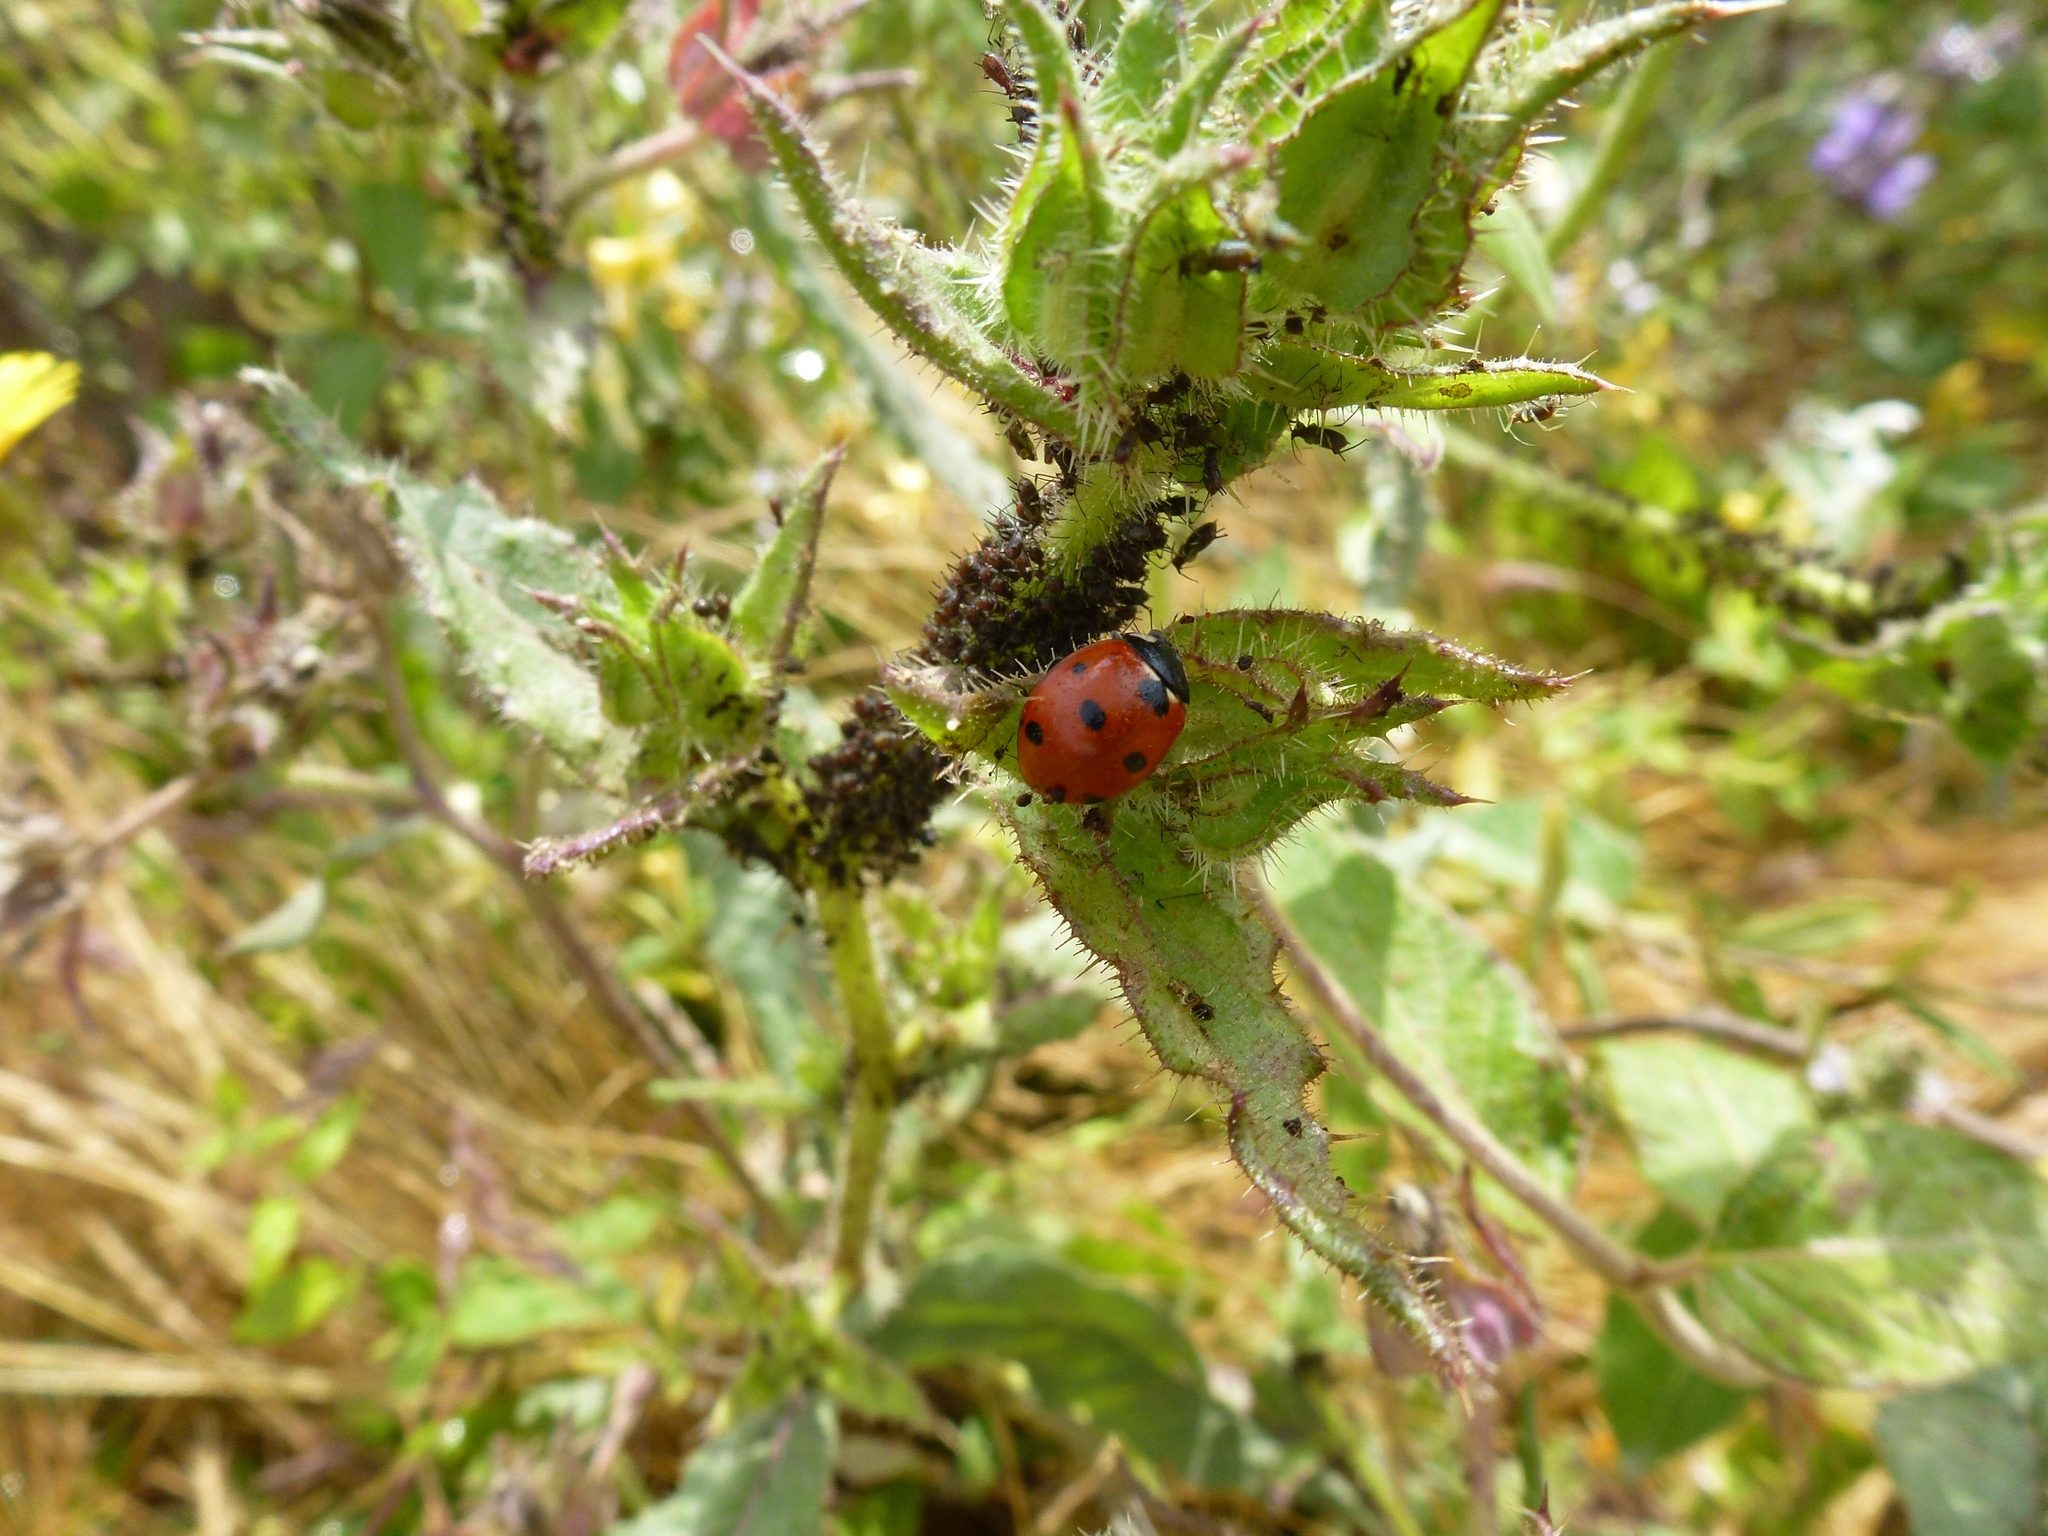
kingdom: Animalia
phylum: Arthropoda
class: Insecta
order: Coleoptera
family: Coccinellidae
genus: Coccinella
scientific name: Coccinella septempunctata
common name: Sevenspotted lady beetle
